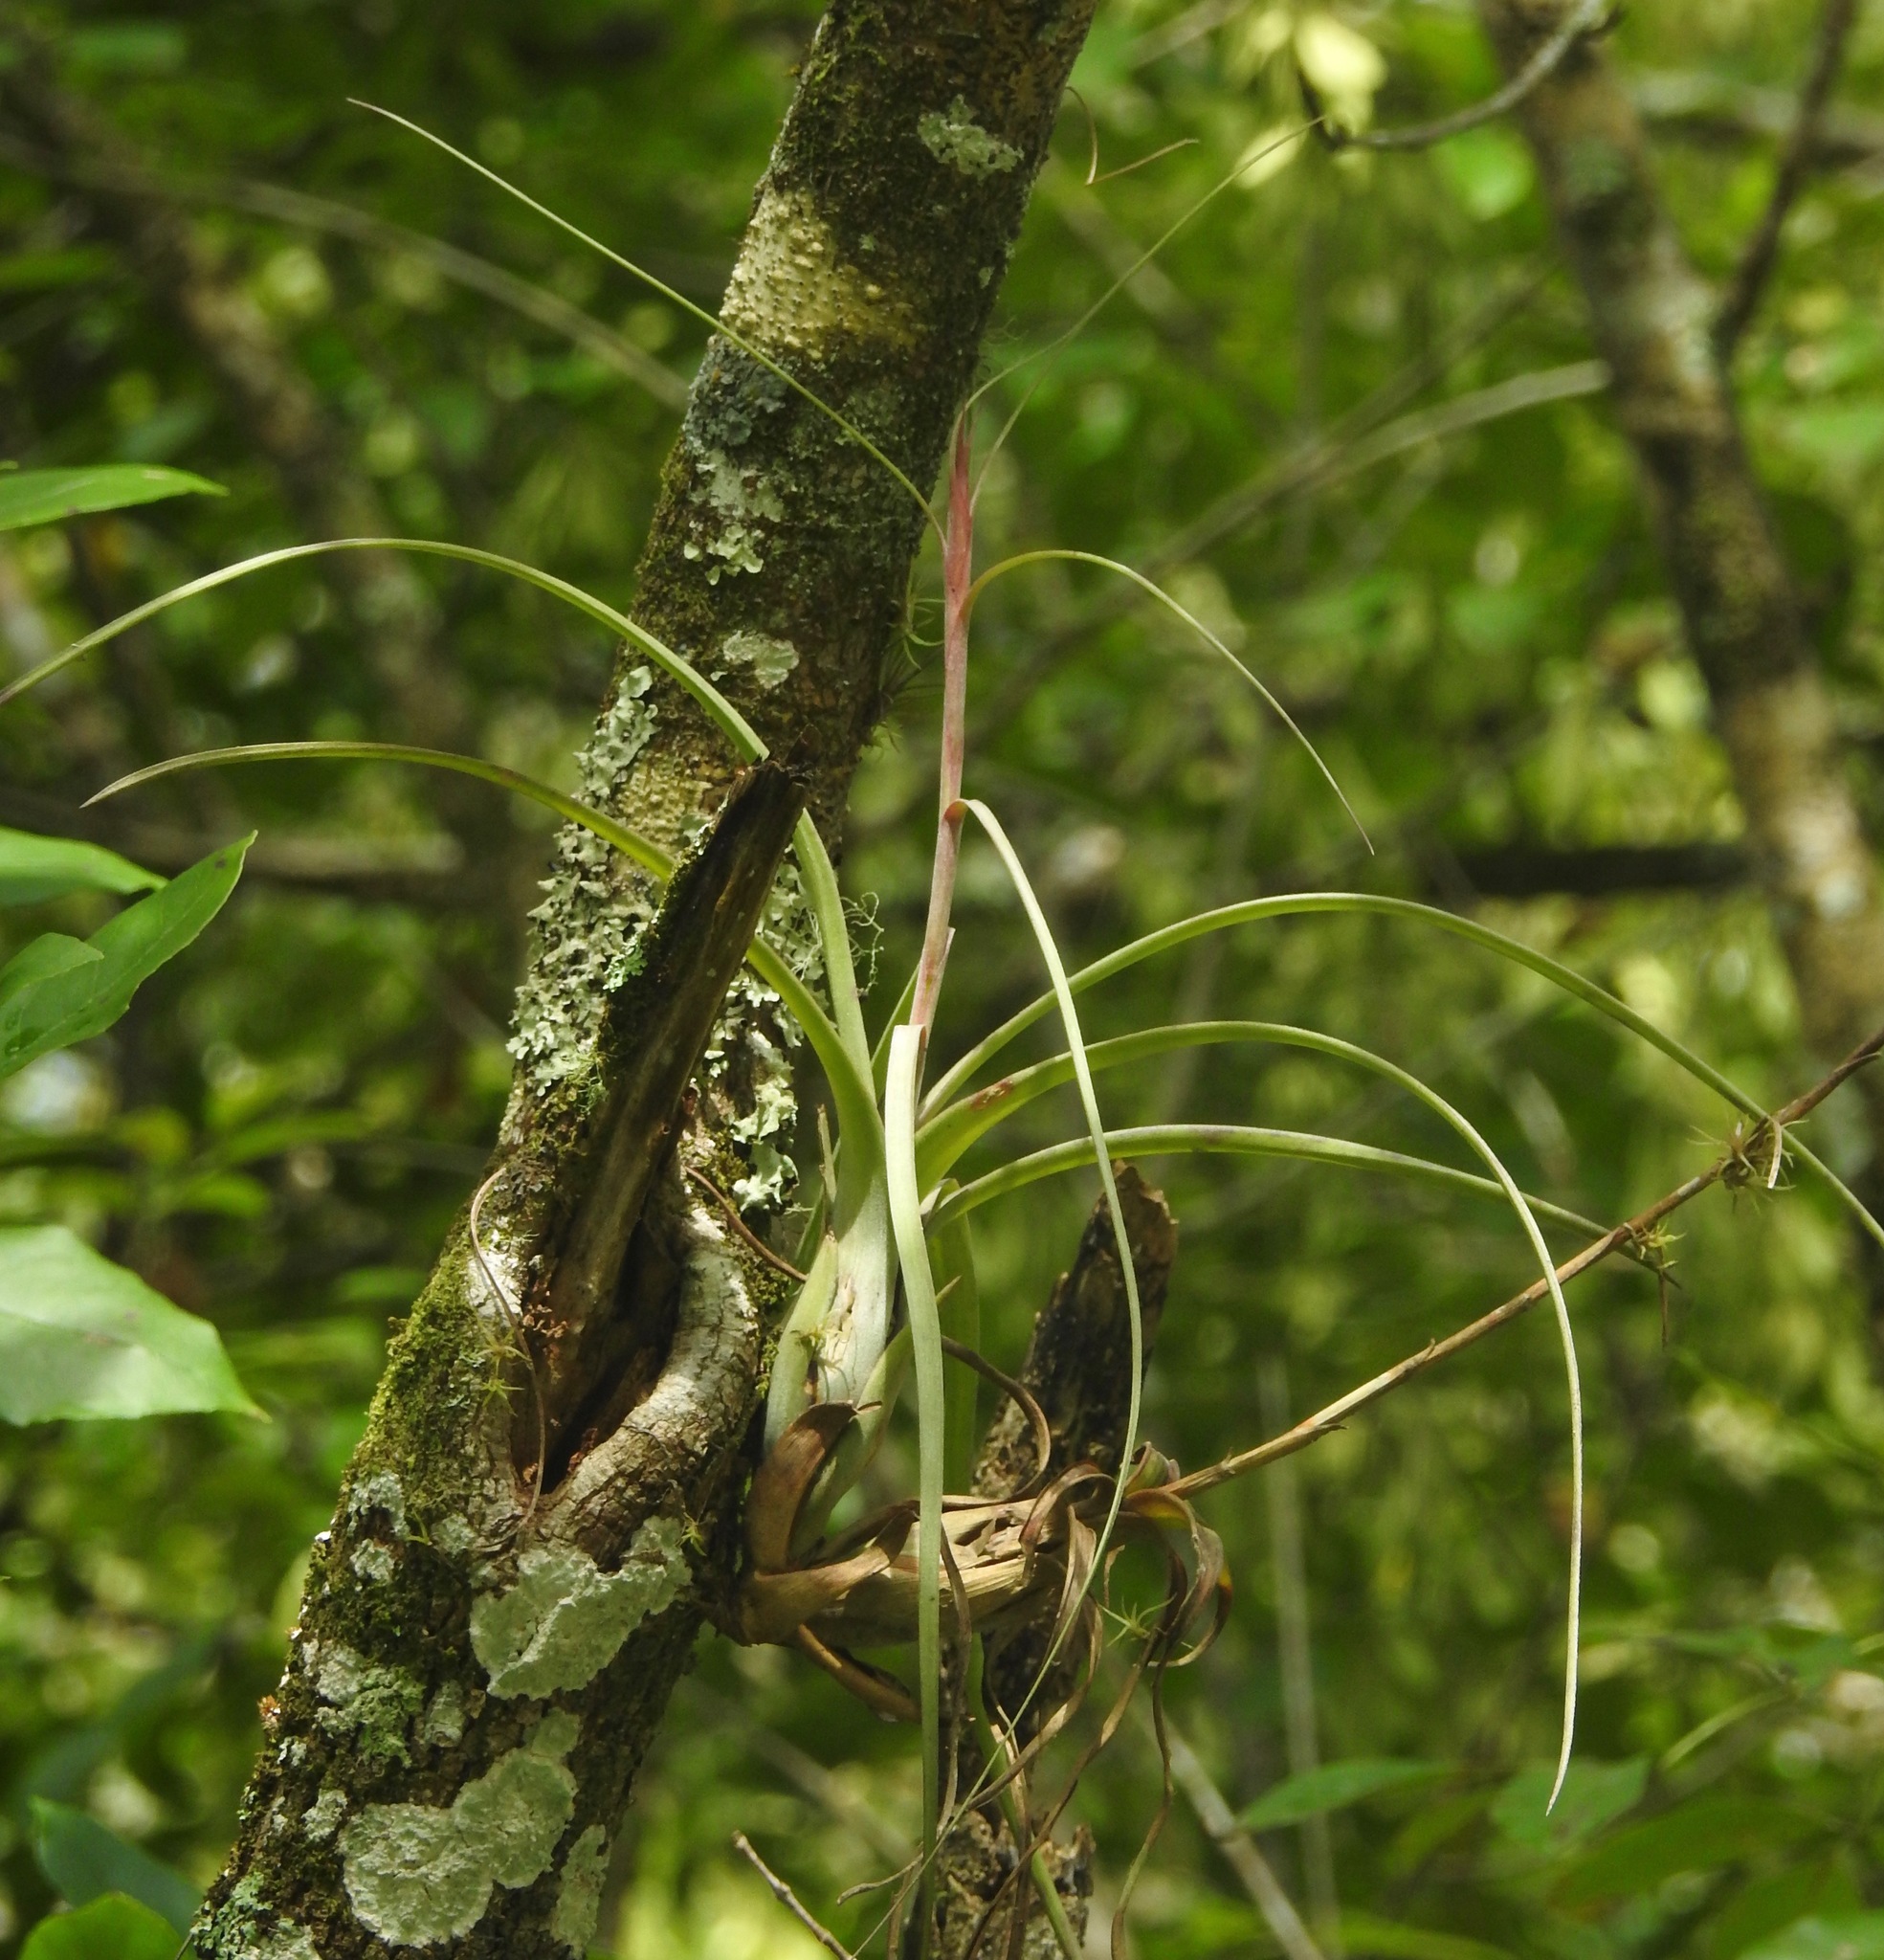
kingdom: Plantae
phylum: Tracheophyta
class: Liliopsida
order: Poales
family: Bromeliaceae
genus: Tillandsia
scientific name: Tillandsia balbisiana
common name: Northern needleleaf
